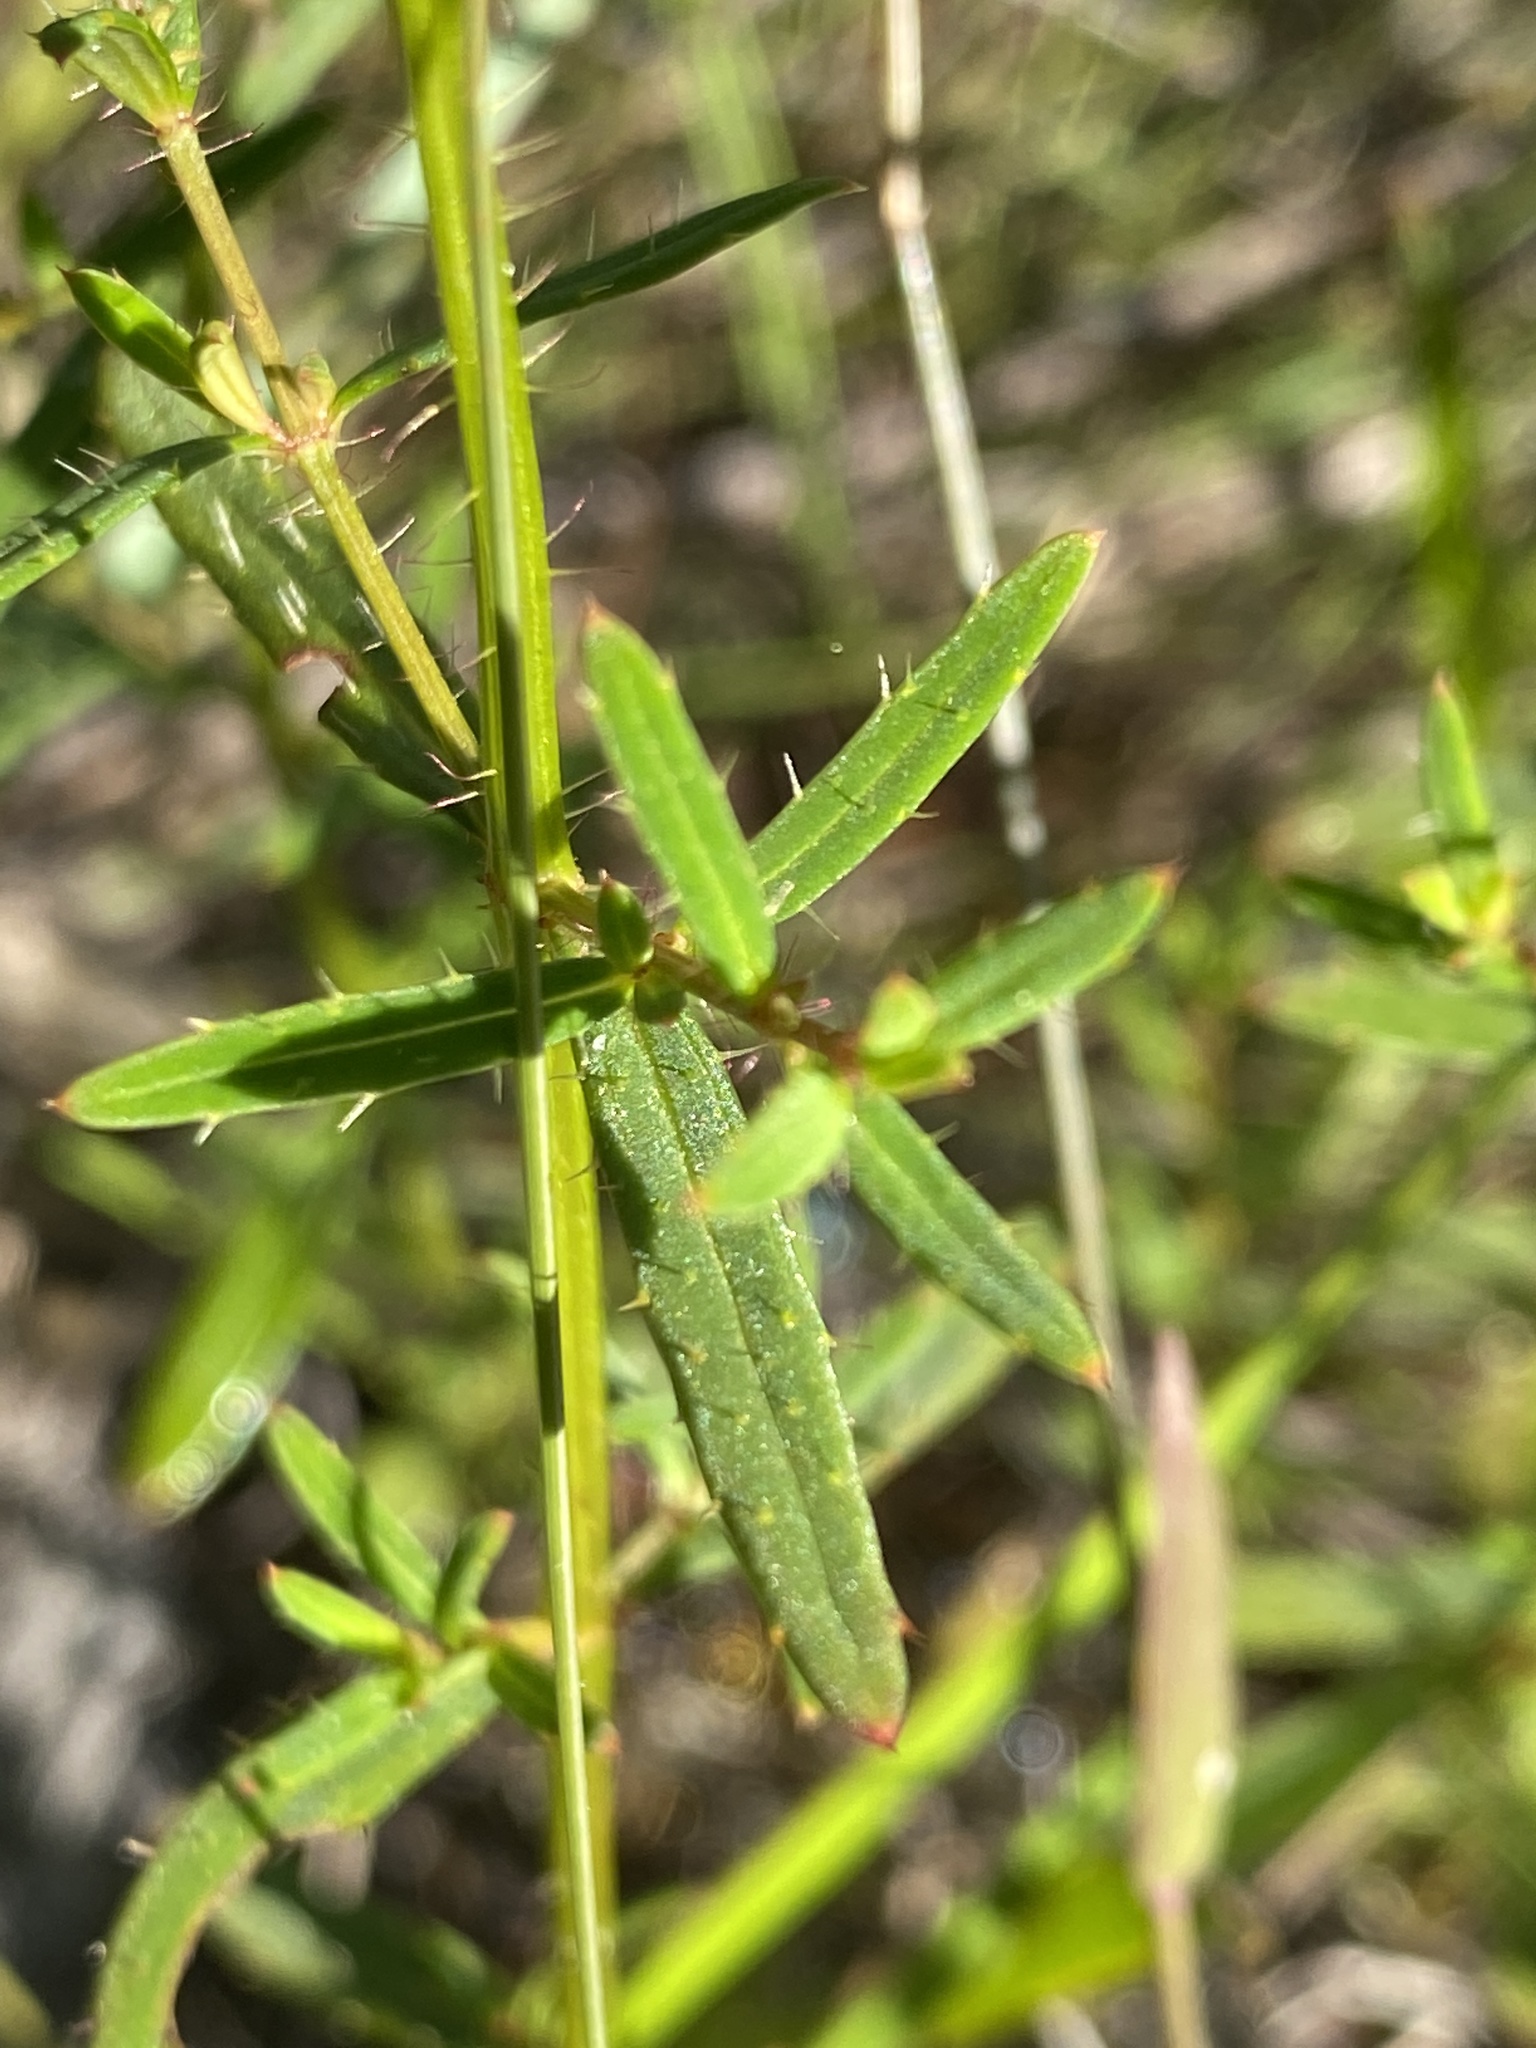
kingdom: Plantae
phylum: Tracheophyta
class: Magnoliopsida
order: Myrtales
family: Melastomataceae
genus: Rhexia
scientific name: Rhexia lutea
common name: Golden meadow-beauty
